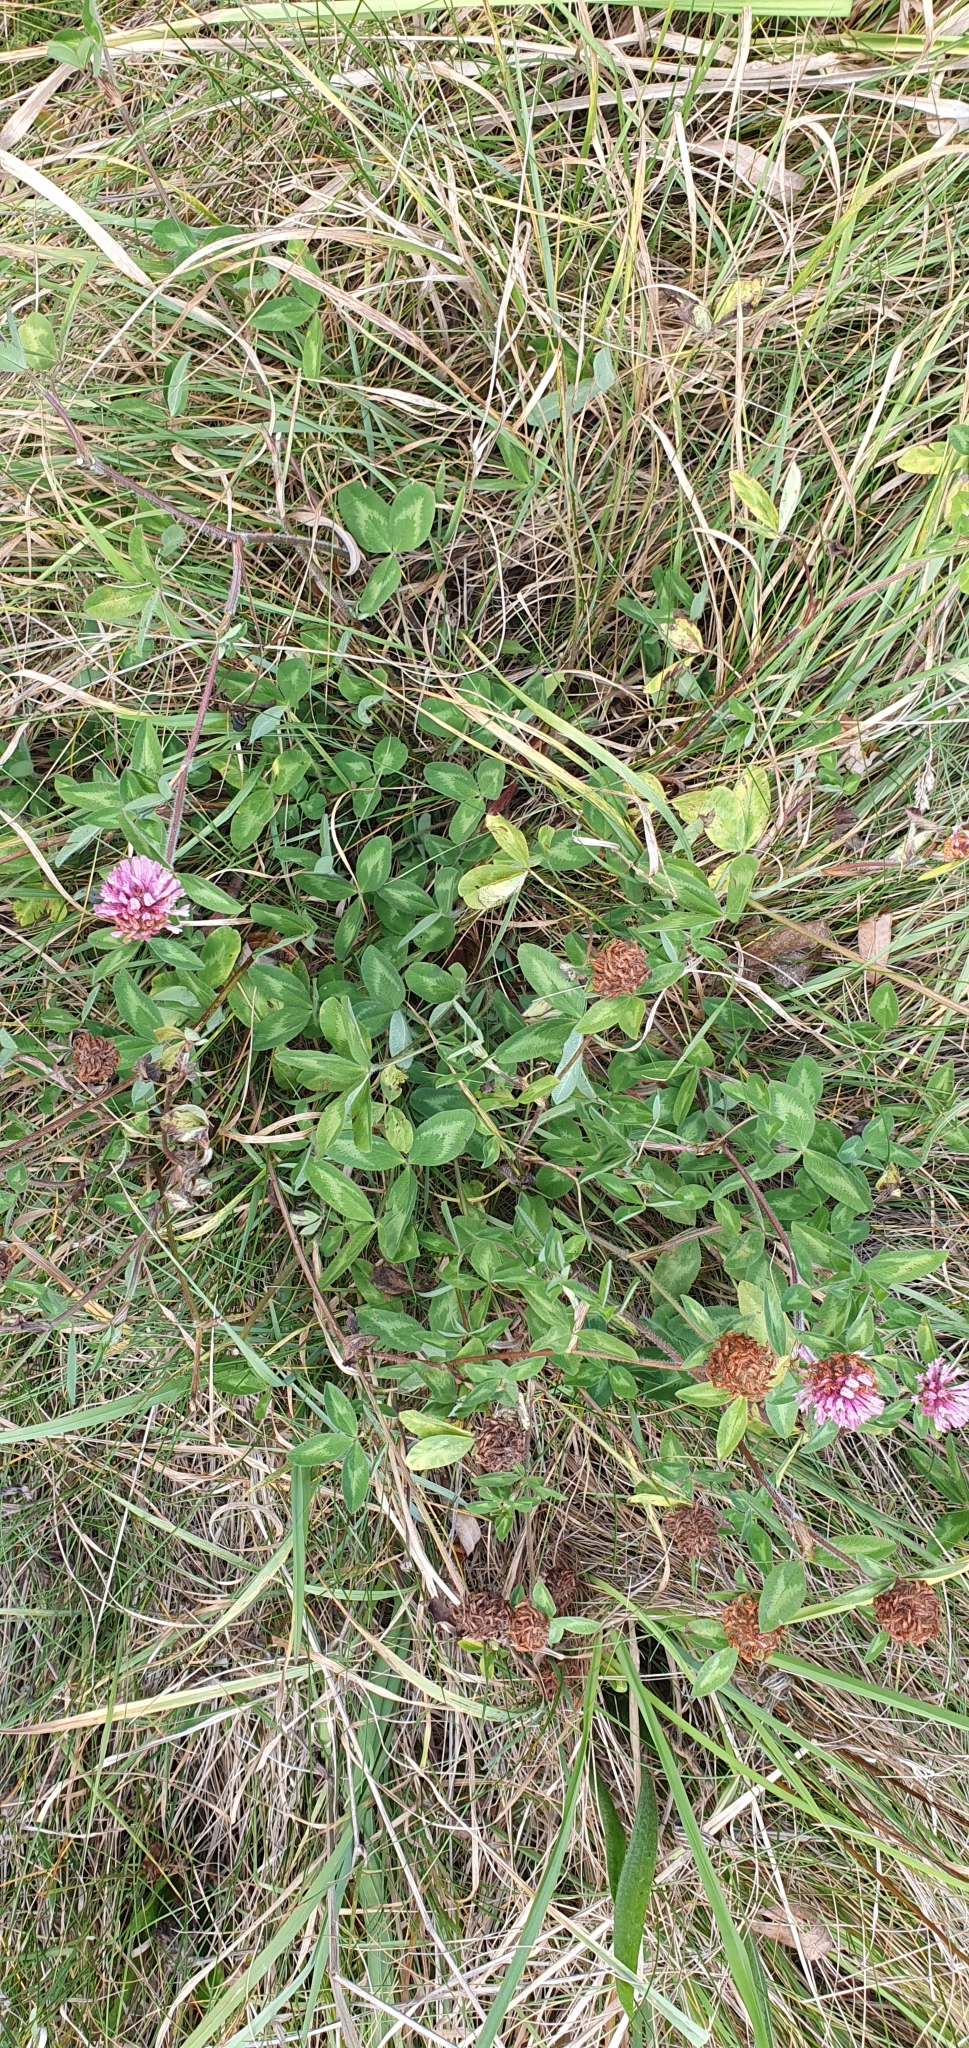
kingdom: Plantae
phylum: Tracheophyta
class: Magnoliopsida
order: Fabales
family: Fabaceae
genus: Trifolium
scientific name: Trifolium pratense
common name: Red clover
